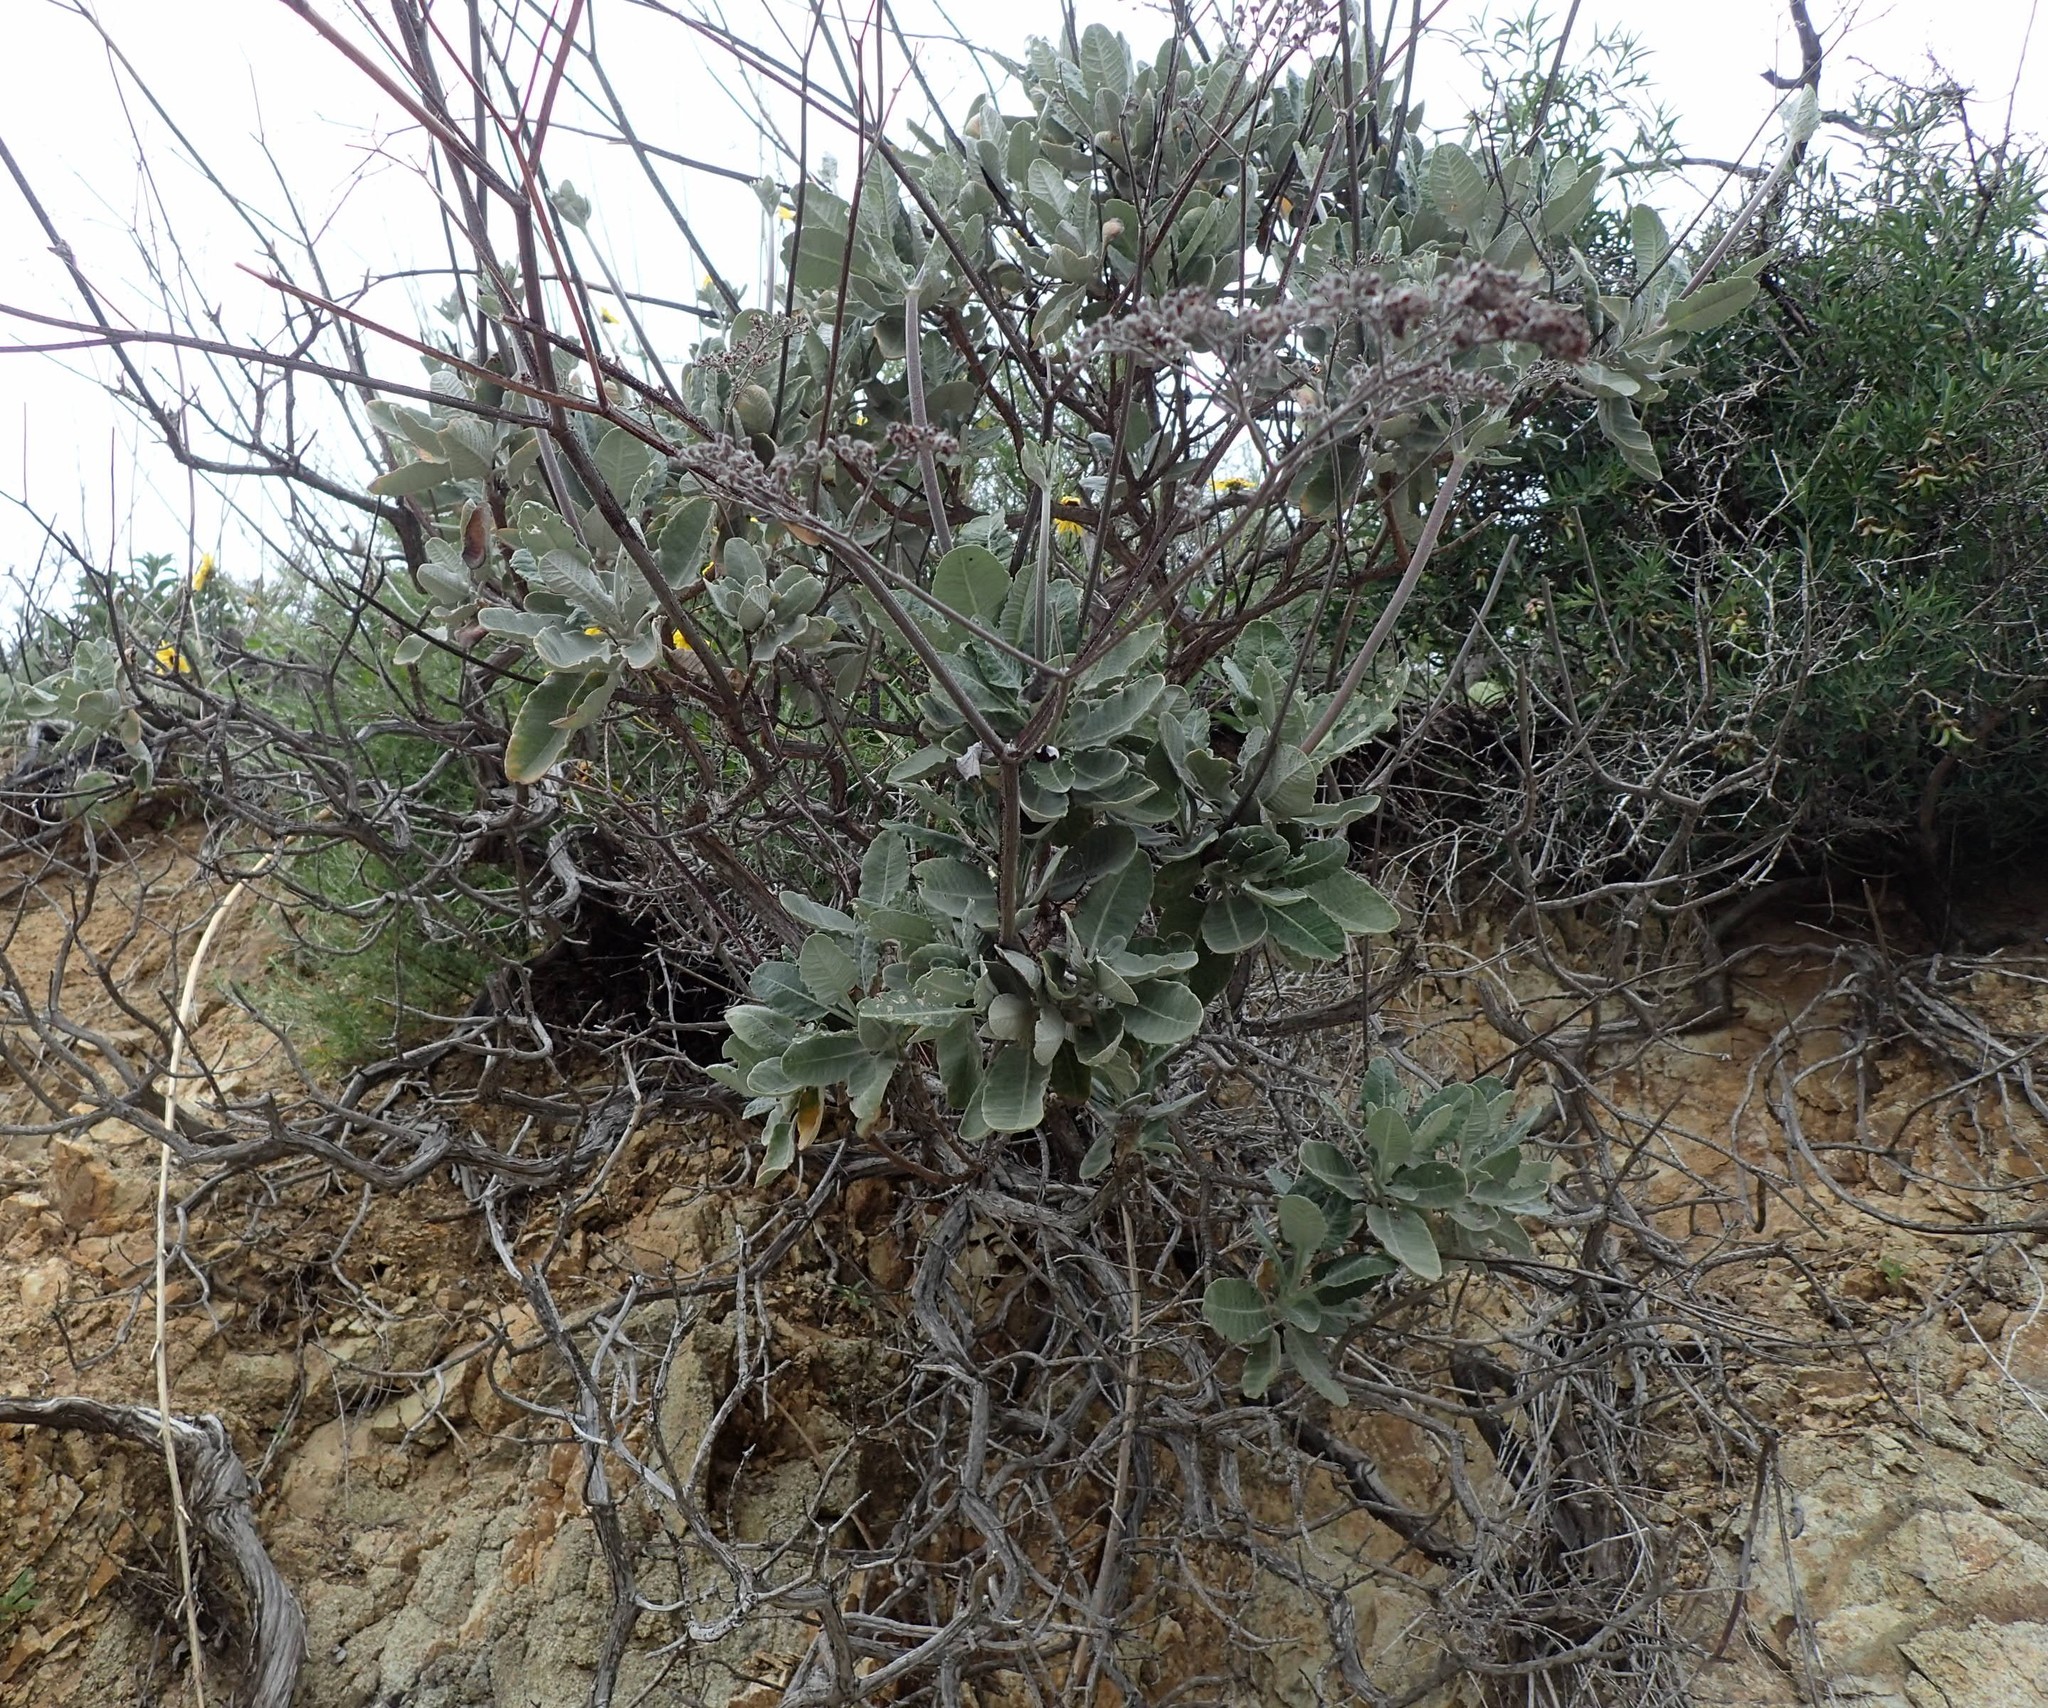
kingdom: Plantae
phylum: Tracheophyta
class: Magnoliopsida
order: Caryophyllales
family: Polygonaceae
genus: Eriogonum
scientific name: Eriogonum giganteum
